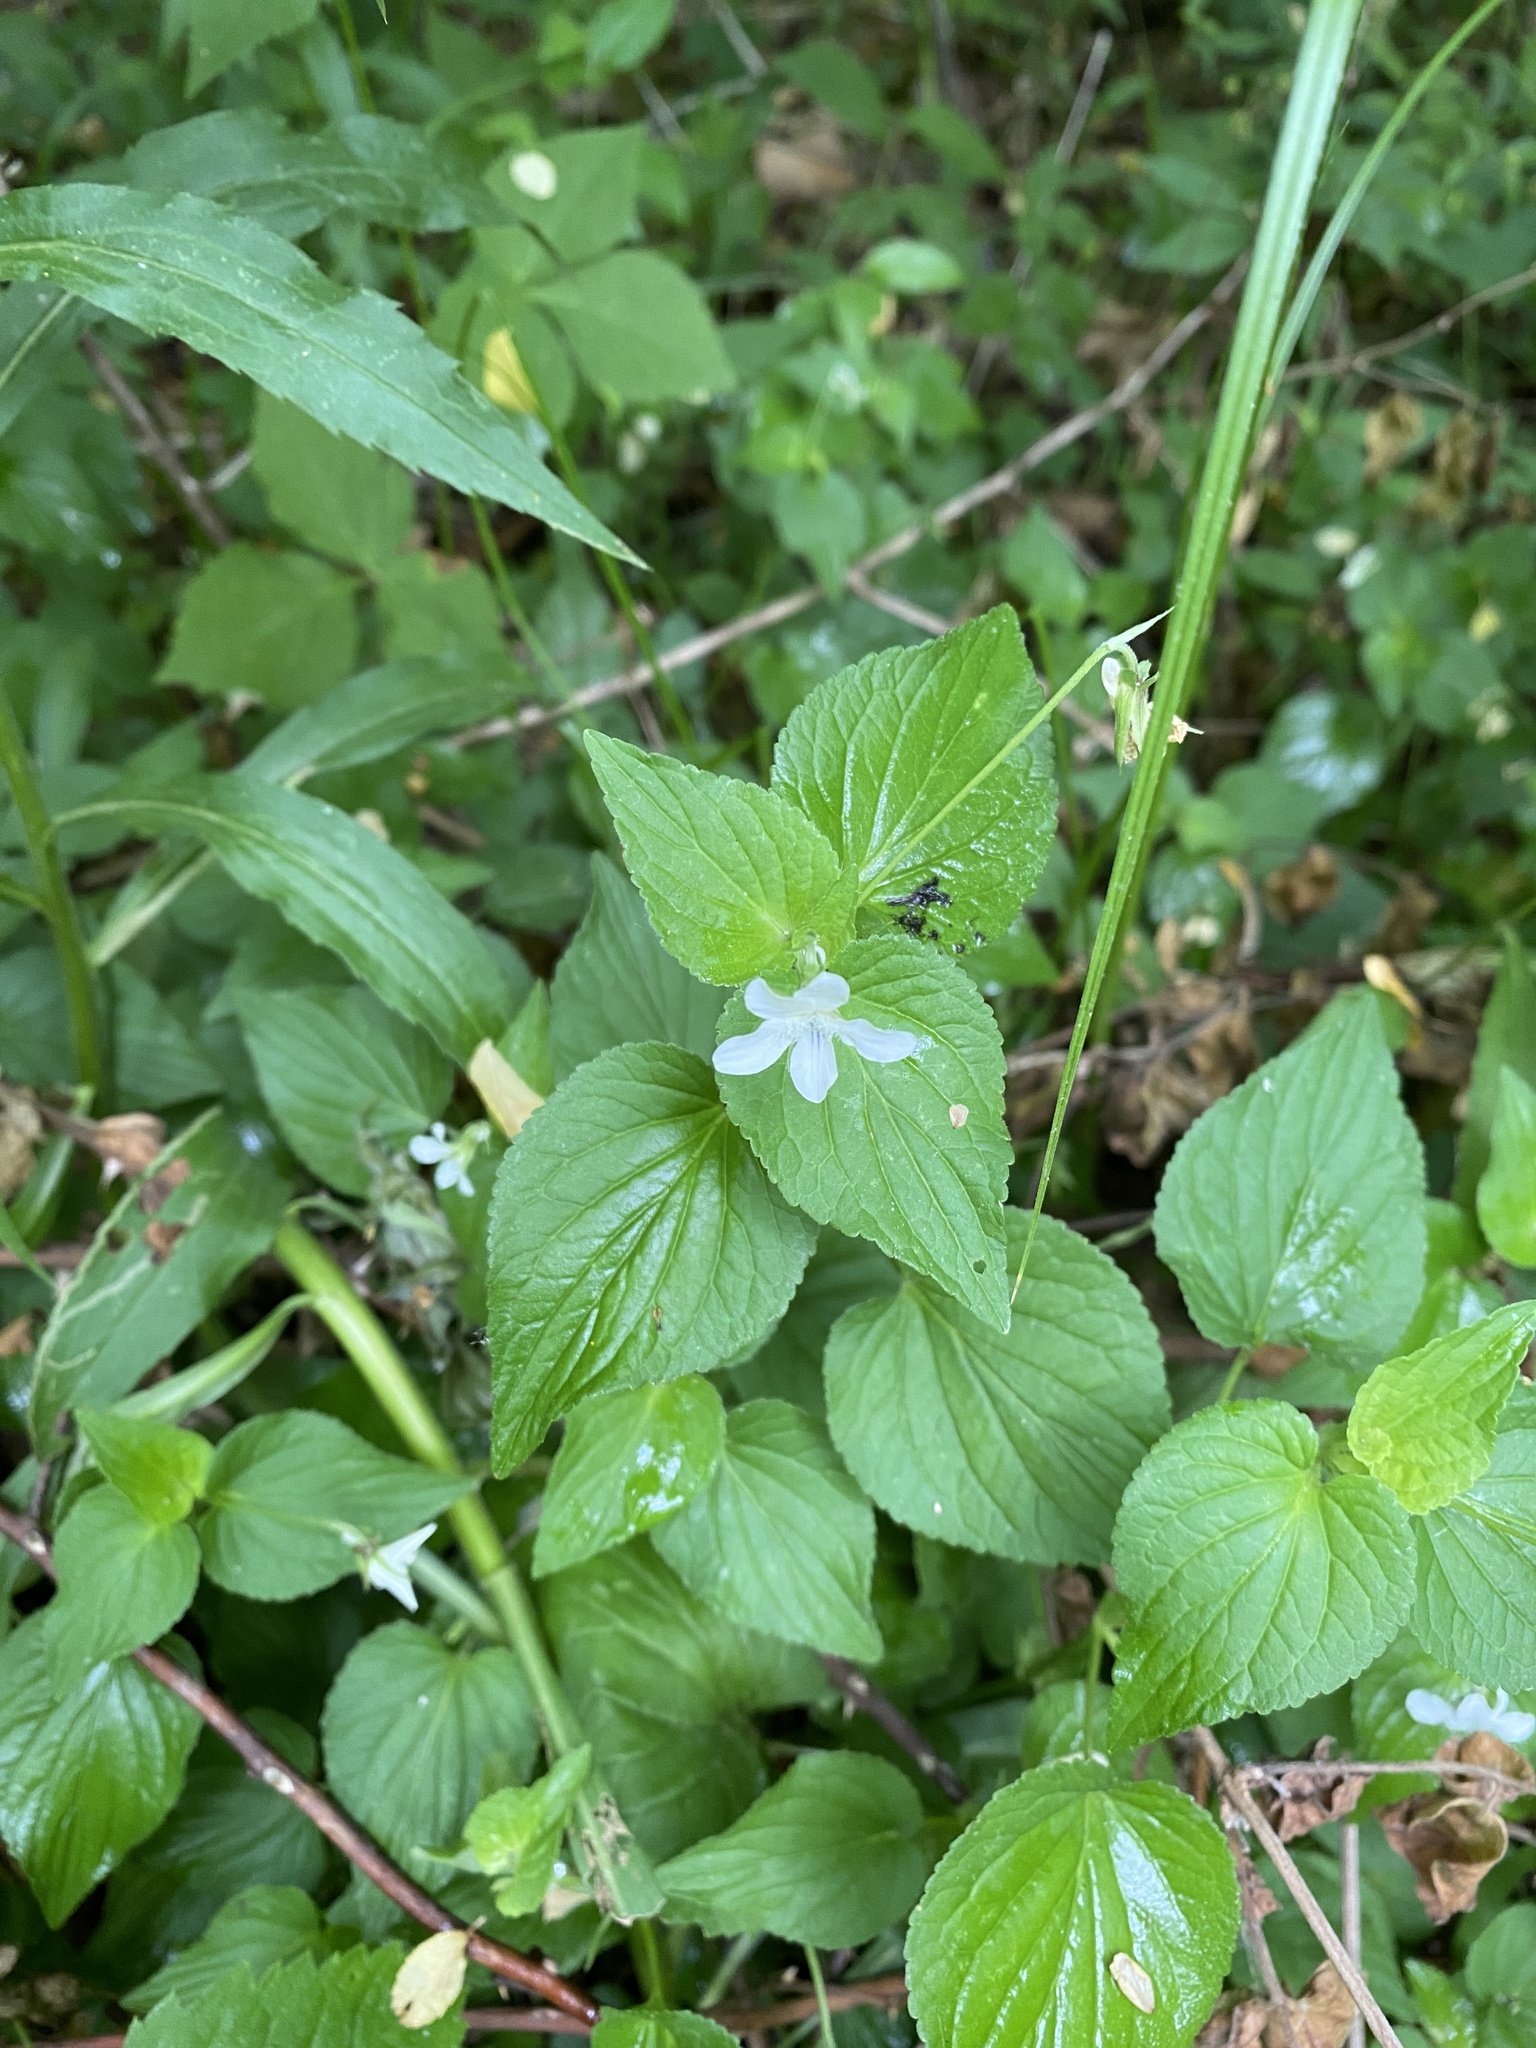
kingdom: Plantae
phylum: Tracheophyta
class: Magnoliopsida
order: Malpighiales
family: Violaceae
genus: Viola
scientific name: Viola striata
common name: Cream violet
